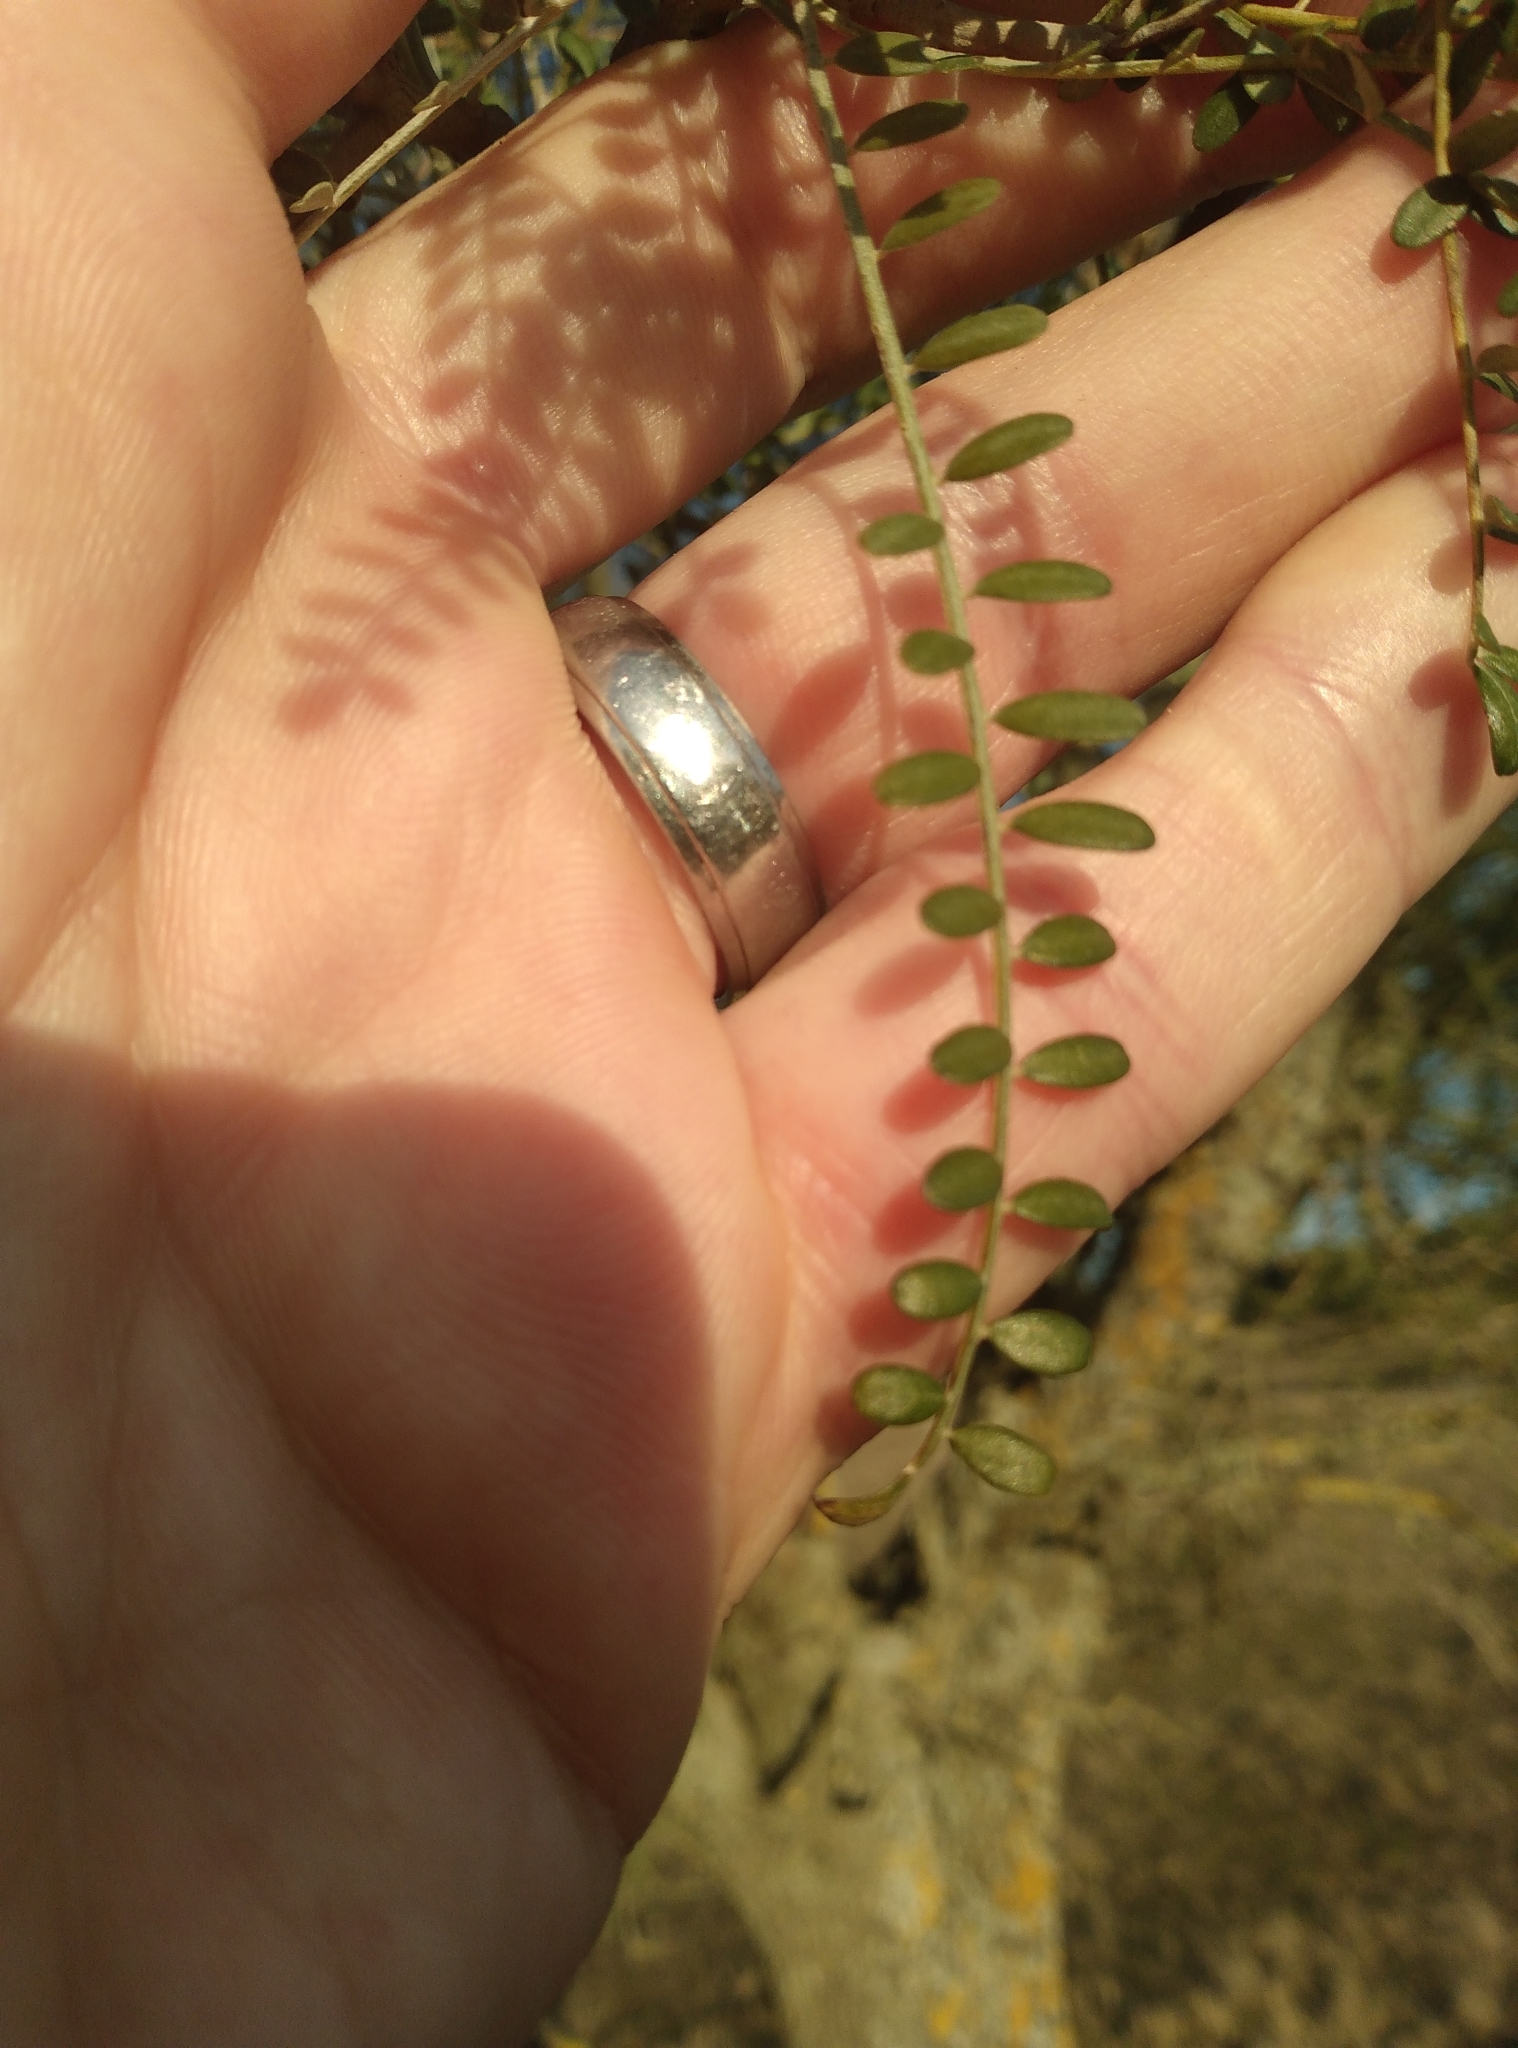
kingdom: Plantae
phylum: Tracheophyta
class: Magnoliopsida
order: Fabales
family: Fabaceae
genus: Sophora
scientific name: Sophora microphylla
